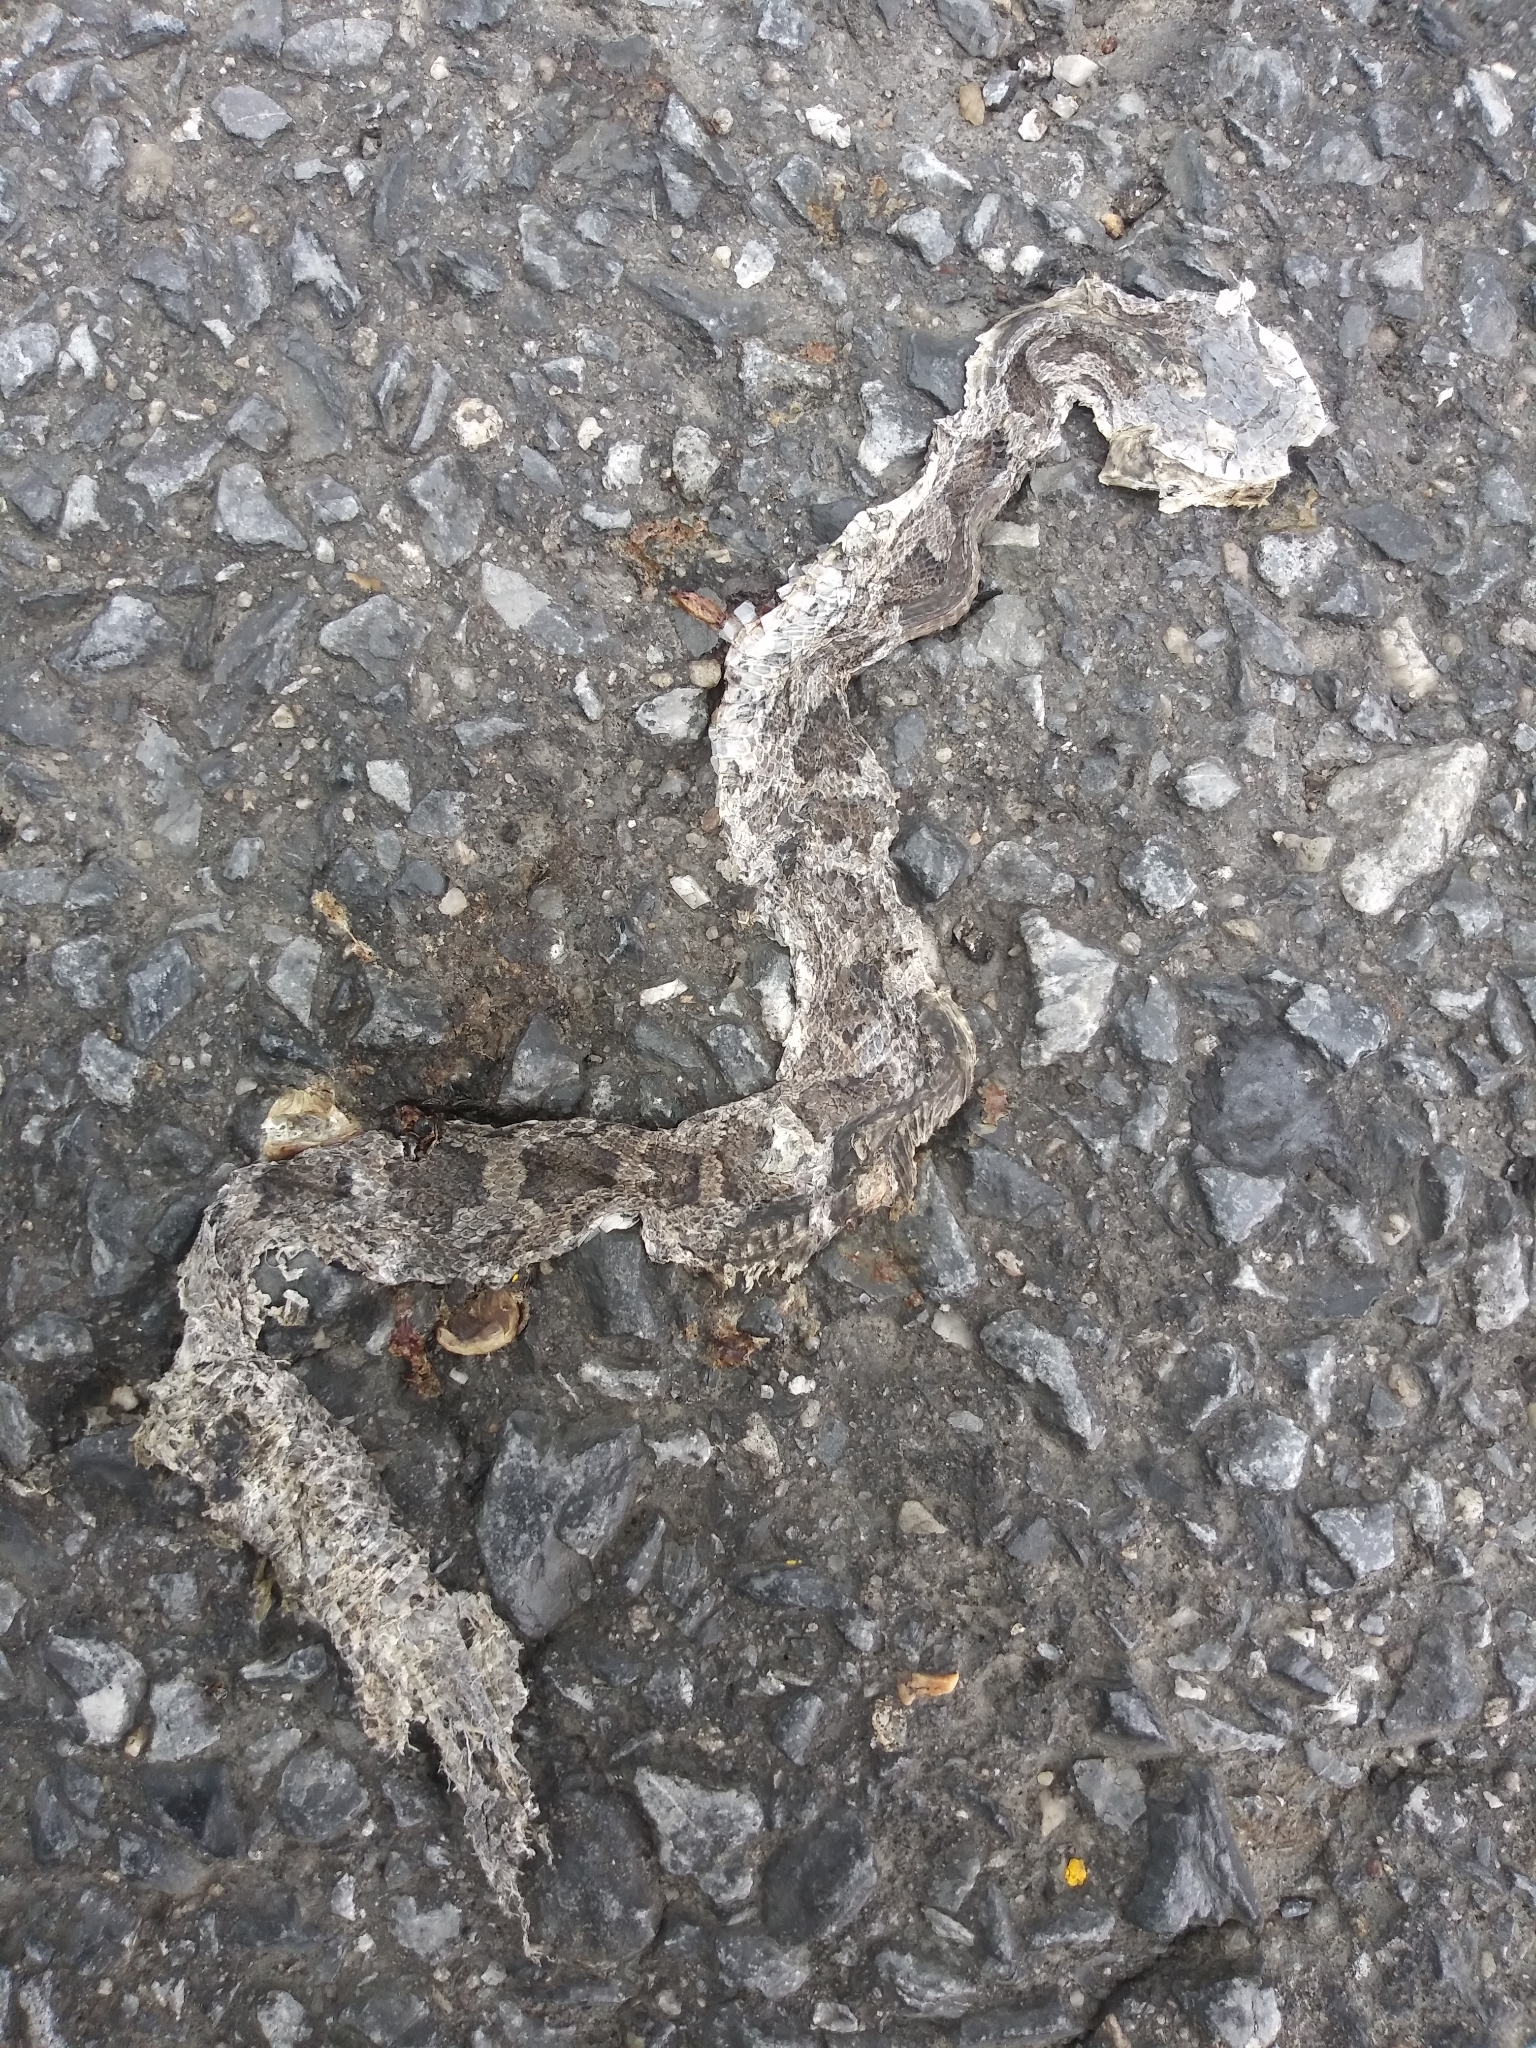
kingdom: Animalia
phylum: Chordata
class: Squamata
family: Colubridae
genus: Pantherophis
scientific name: Pantherophis
